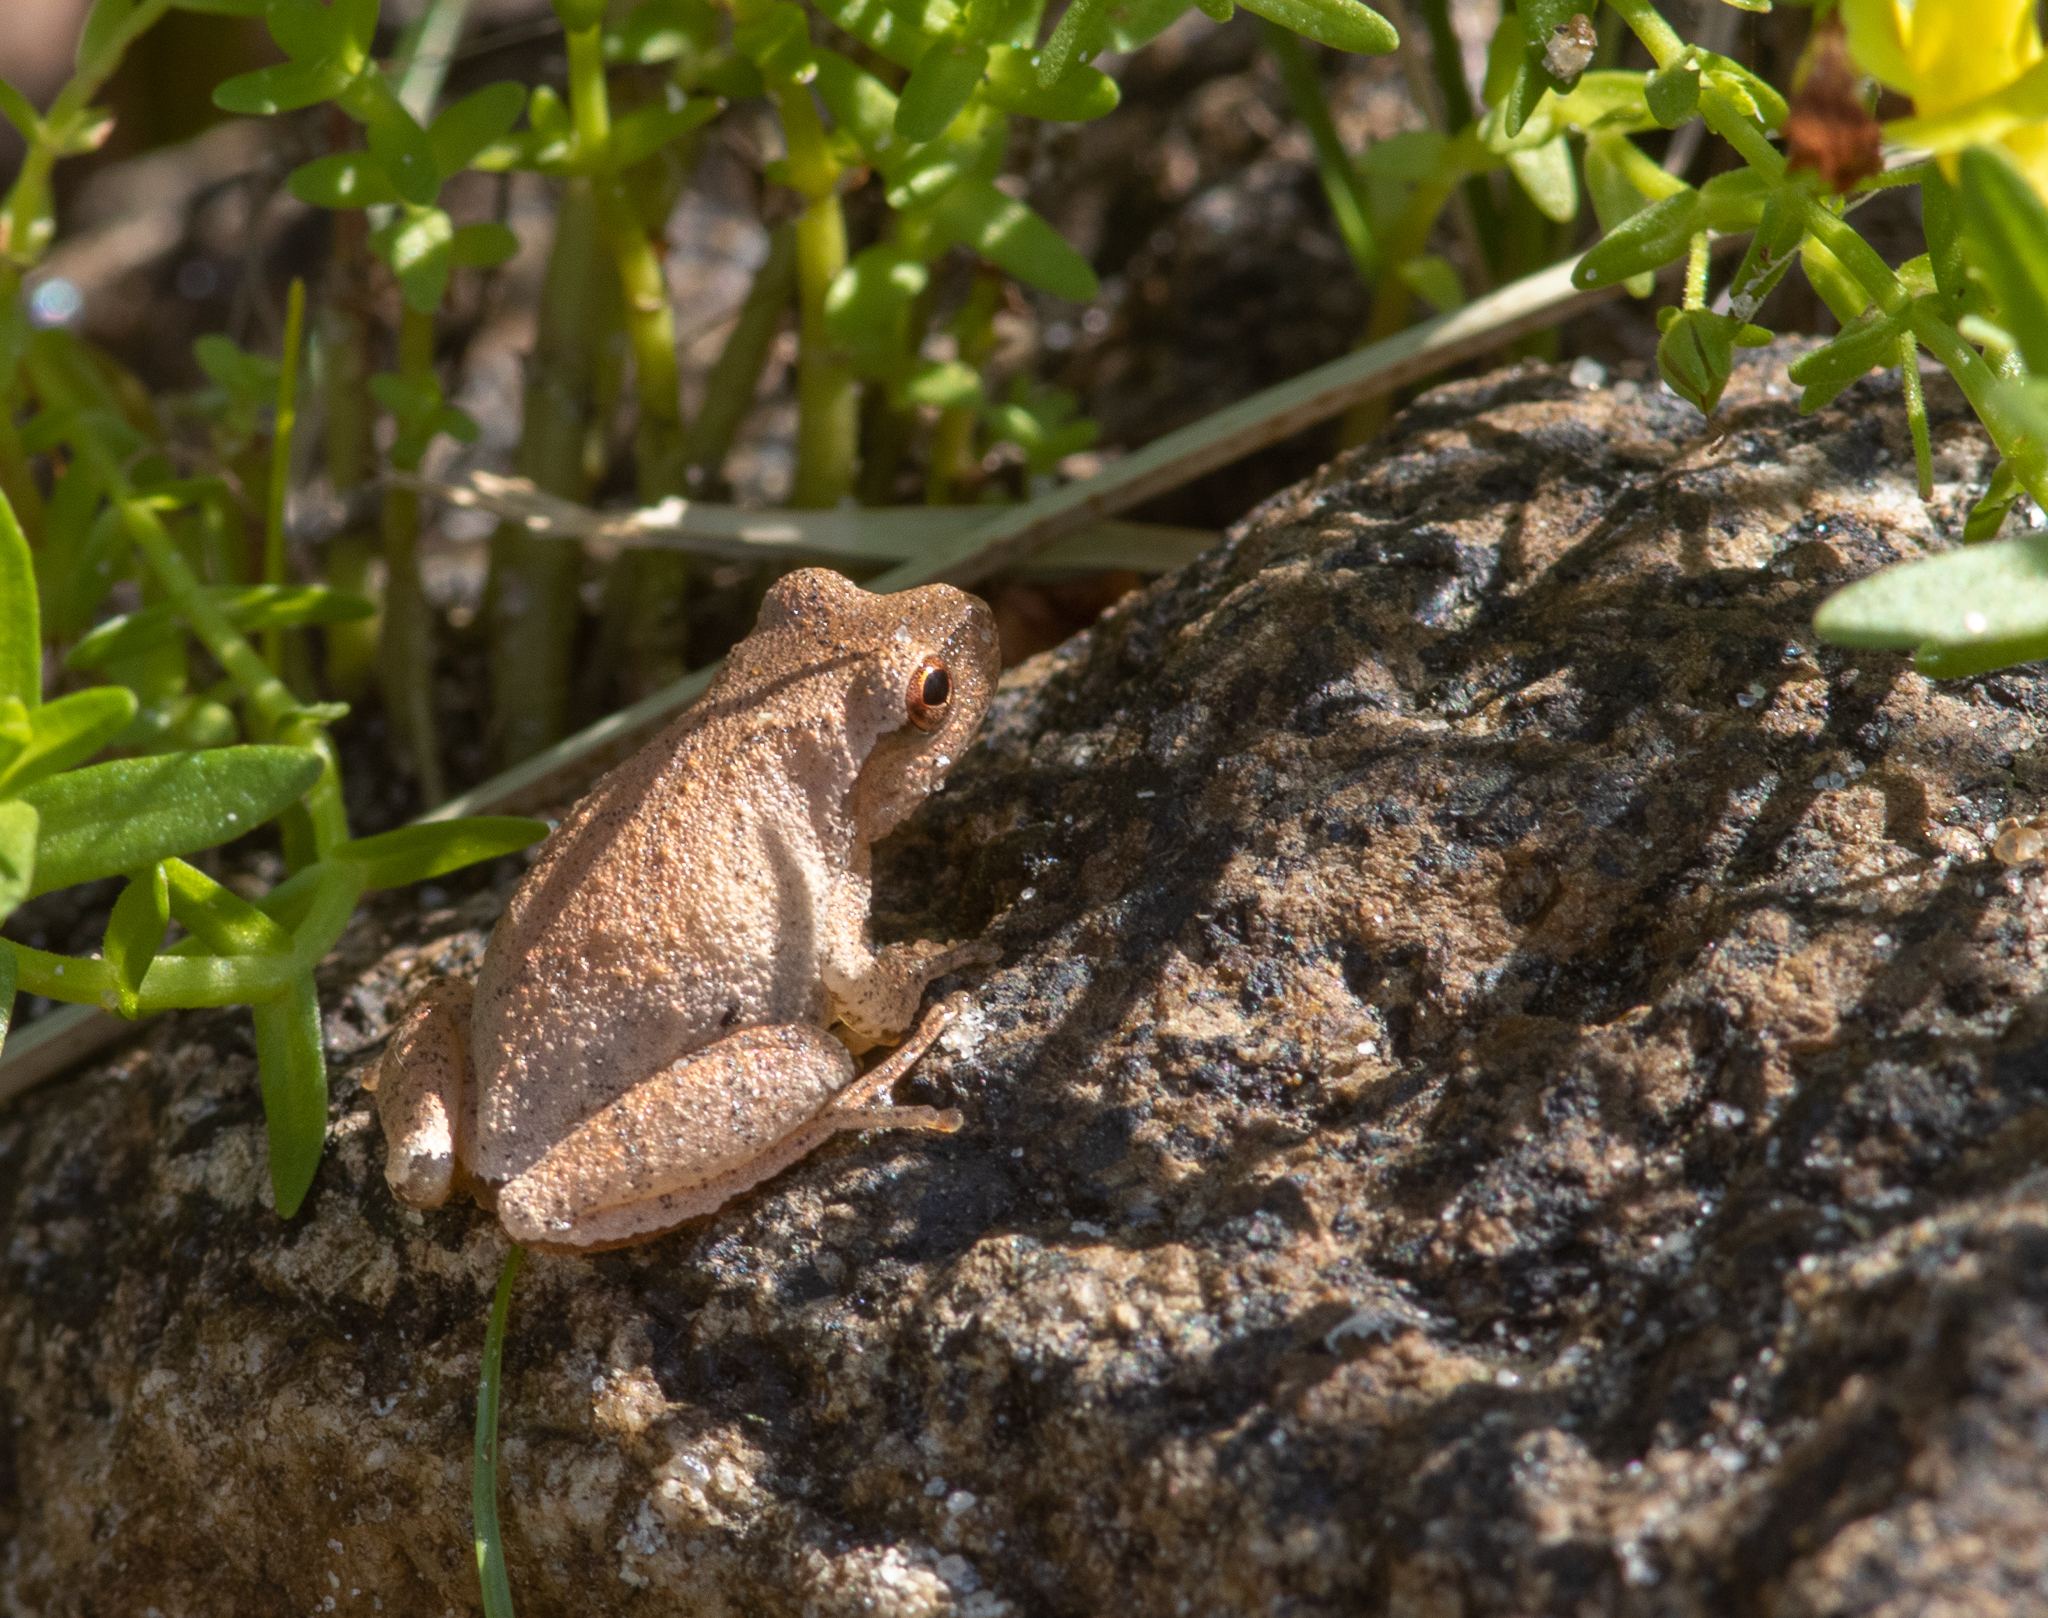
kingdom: Animalia
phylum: Chordata
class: Amphibia
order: Anura
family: Hylidae
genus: Pseudacris
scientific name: Pseudacris crucifer
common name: Spring peeper
